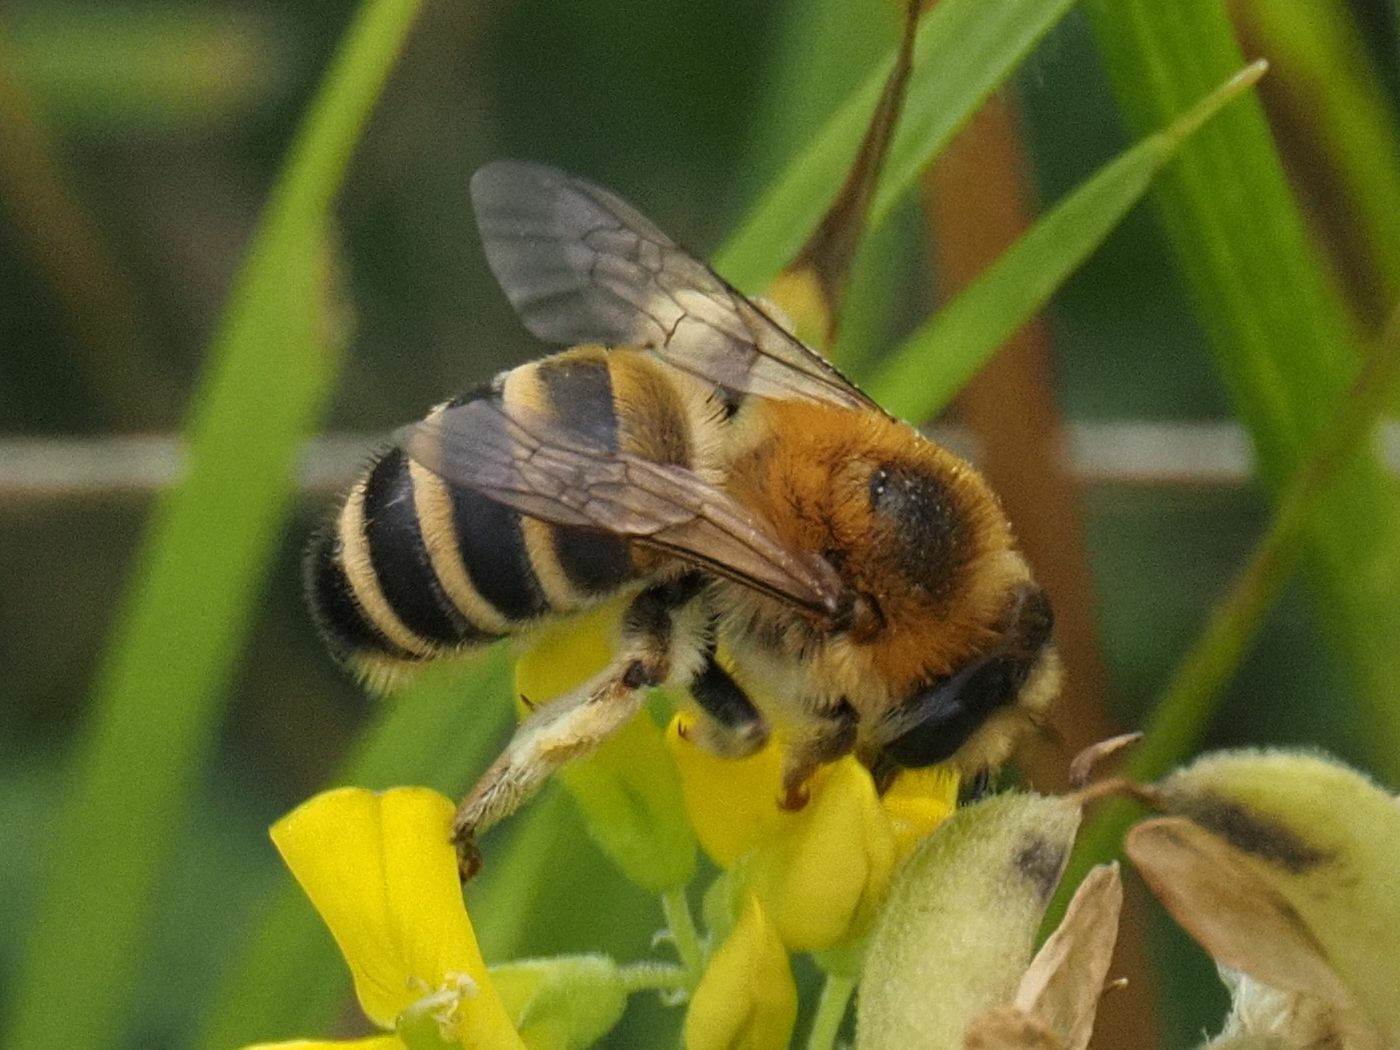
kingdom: Animalia
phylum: Arthropoda
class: Insecta
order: Hymenoptera
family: Melittidae
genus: Melitta
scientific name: Melitta leporina
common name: Clover melitta
